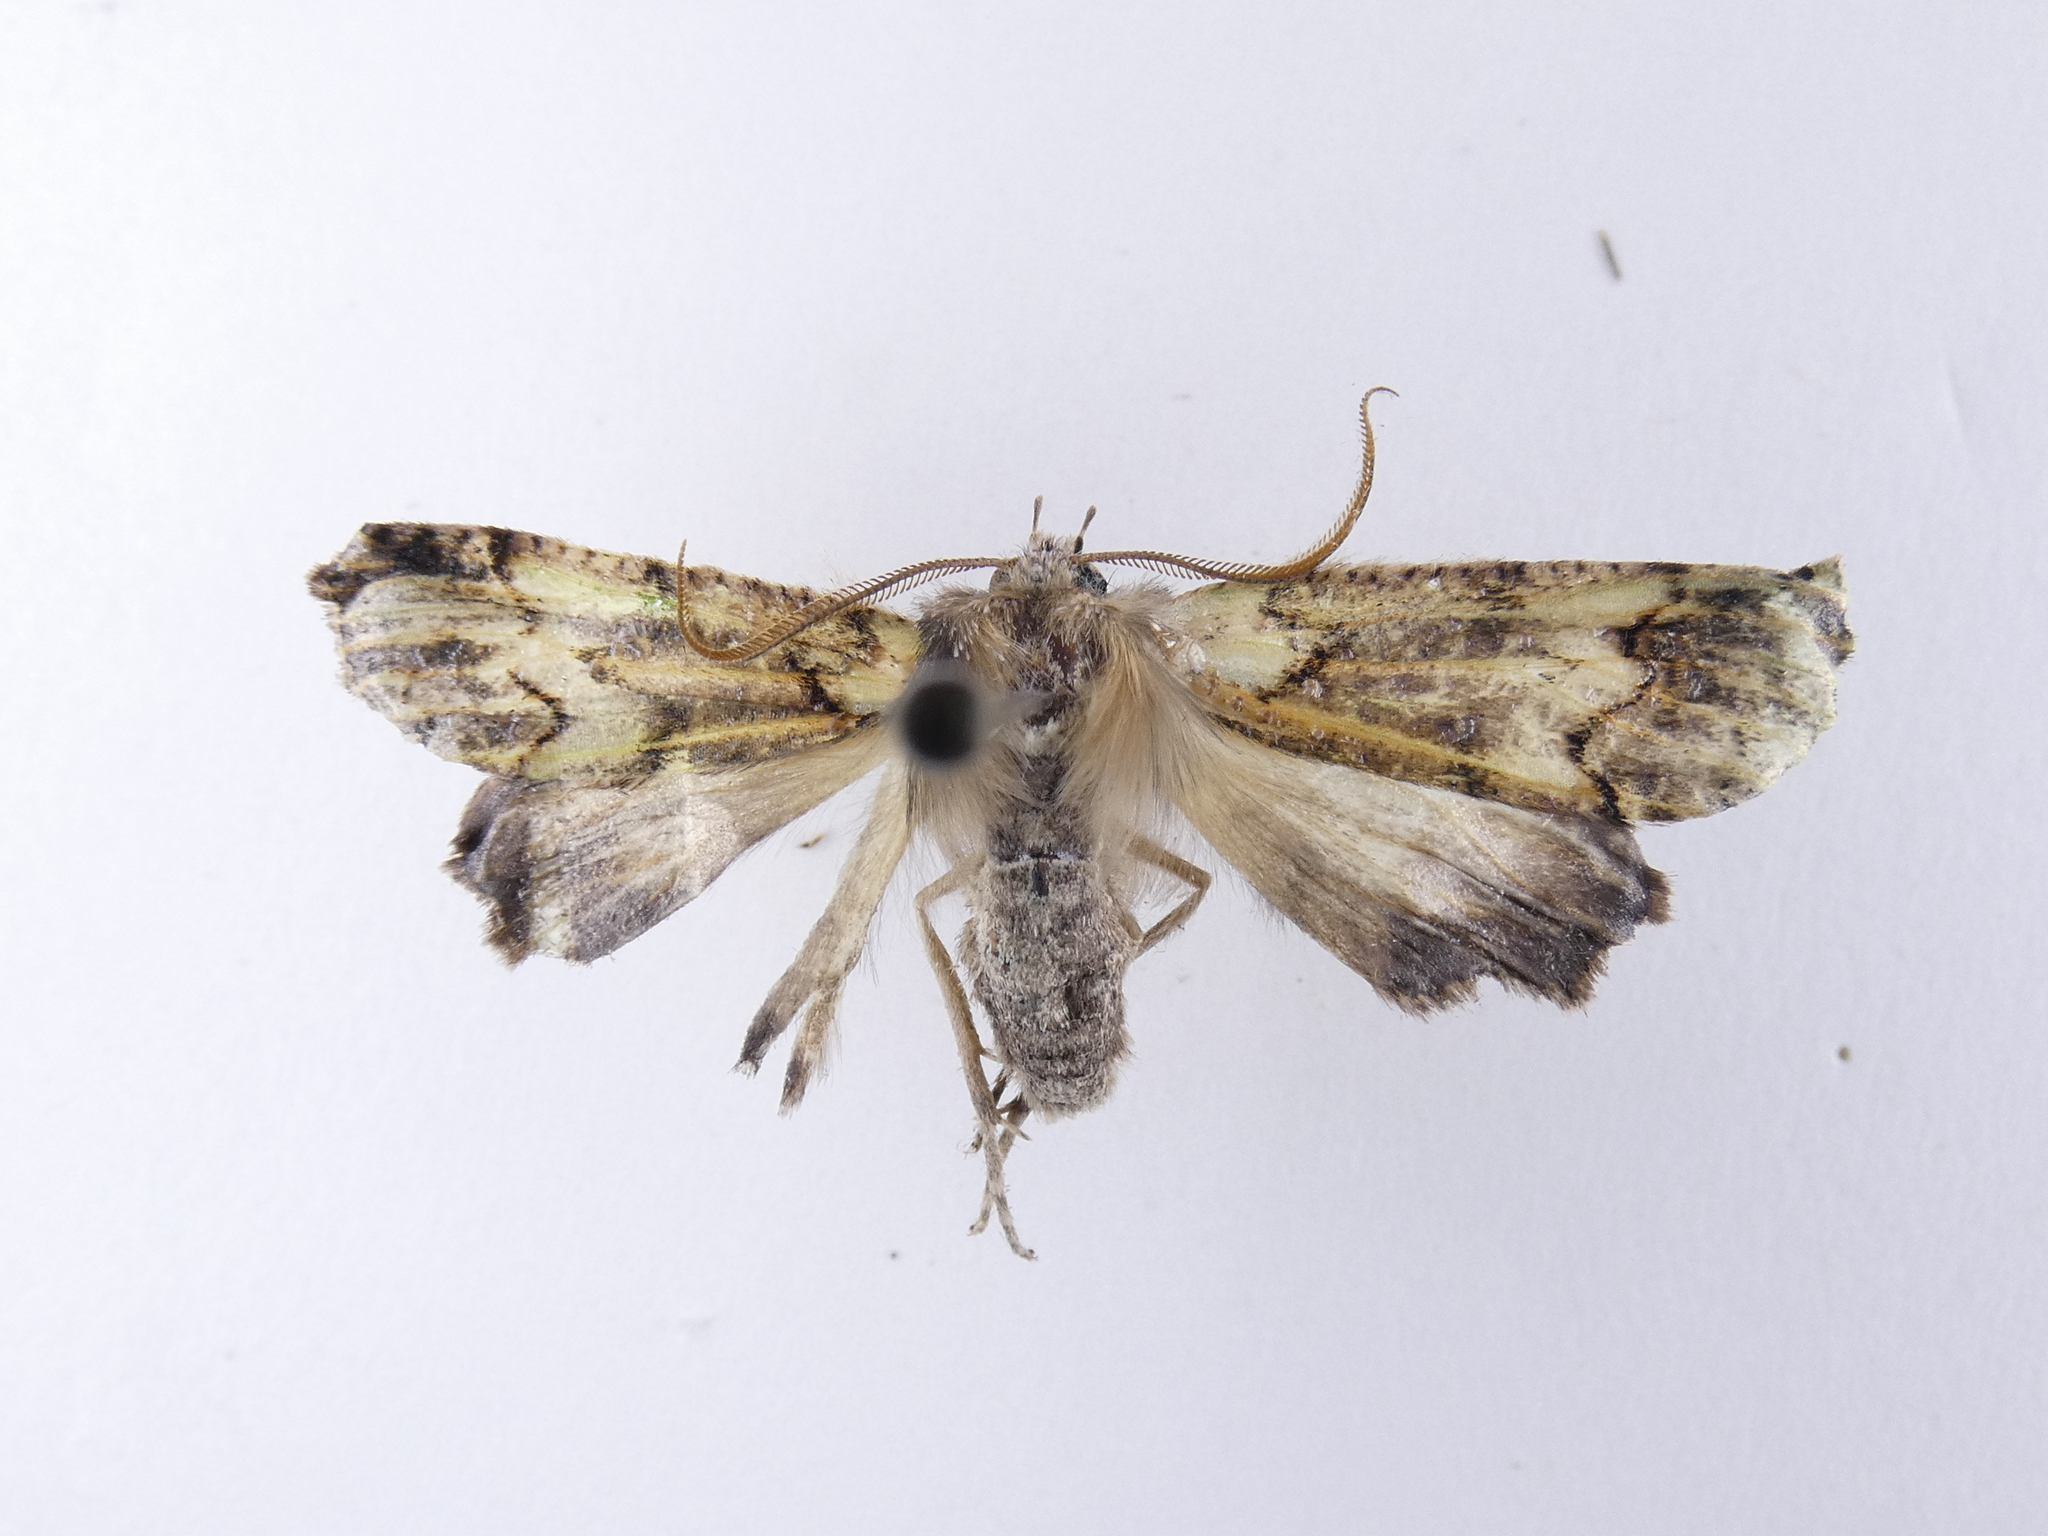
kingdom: Animalia
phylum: Arthropoda
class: Insecta
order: Lepidoptera
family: Geometridae
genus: Declana
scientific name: Declana floccosa
